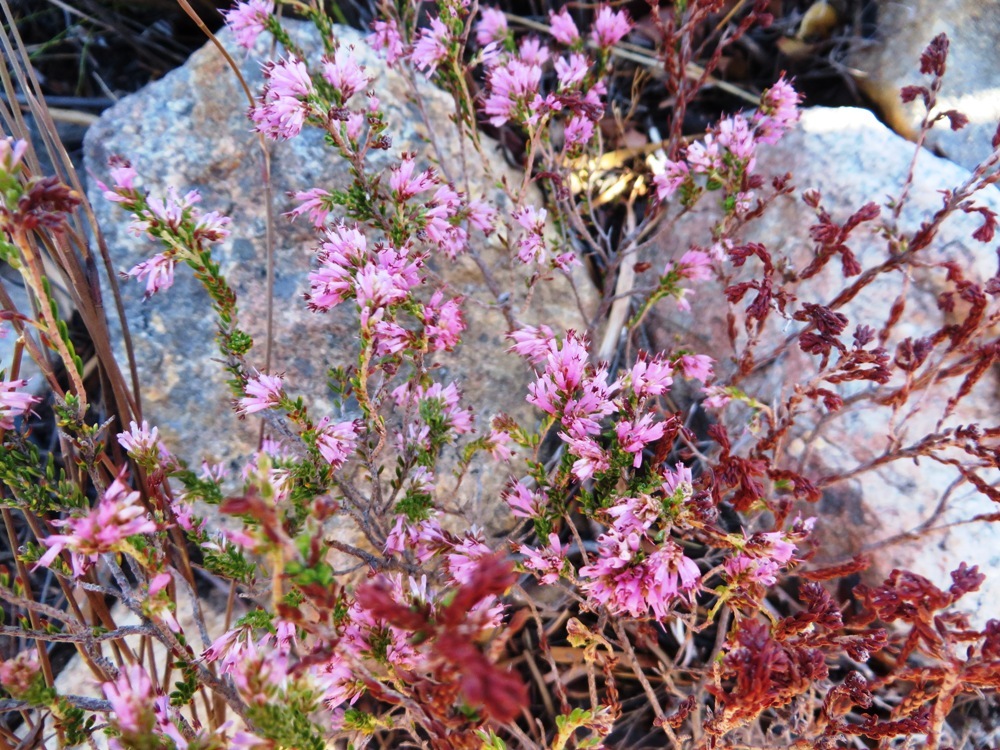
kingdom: Plantae
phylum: Tracheophyta
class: Magnoliopsida
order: Ericales
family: Ericaceae
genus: Erica
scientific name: Erica labialis
